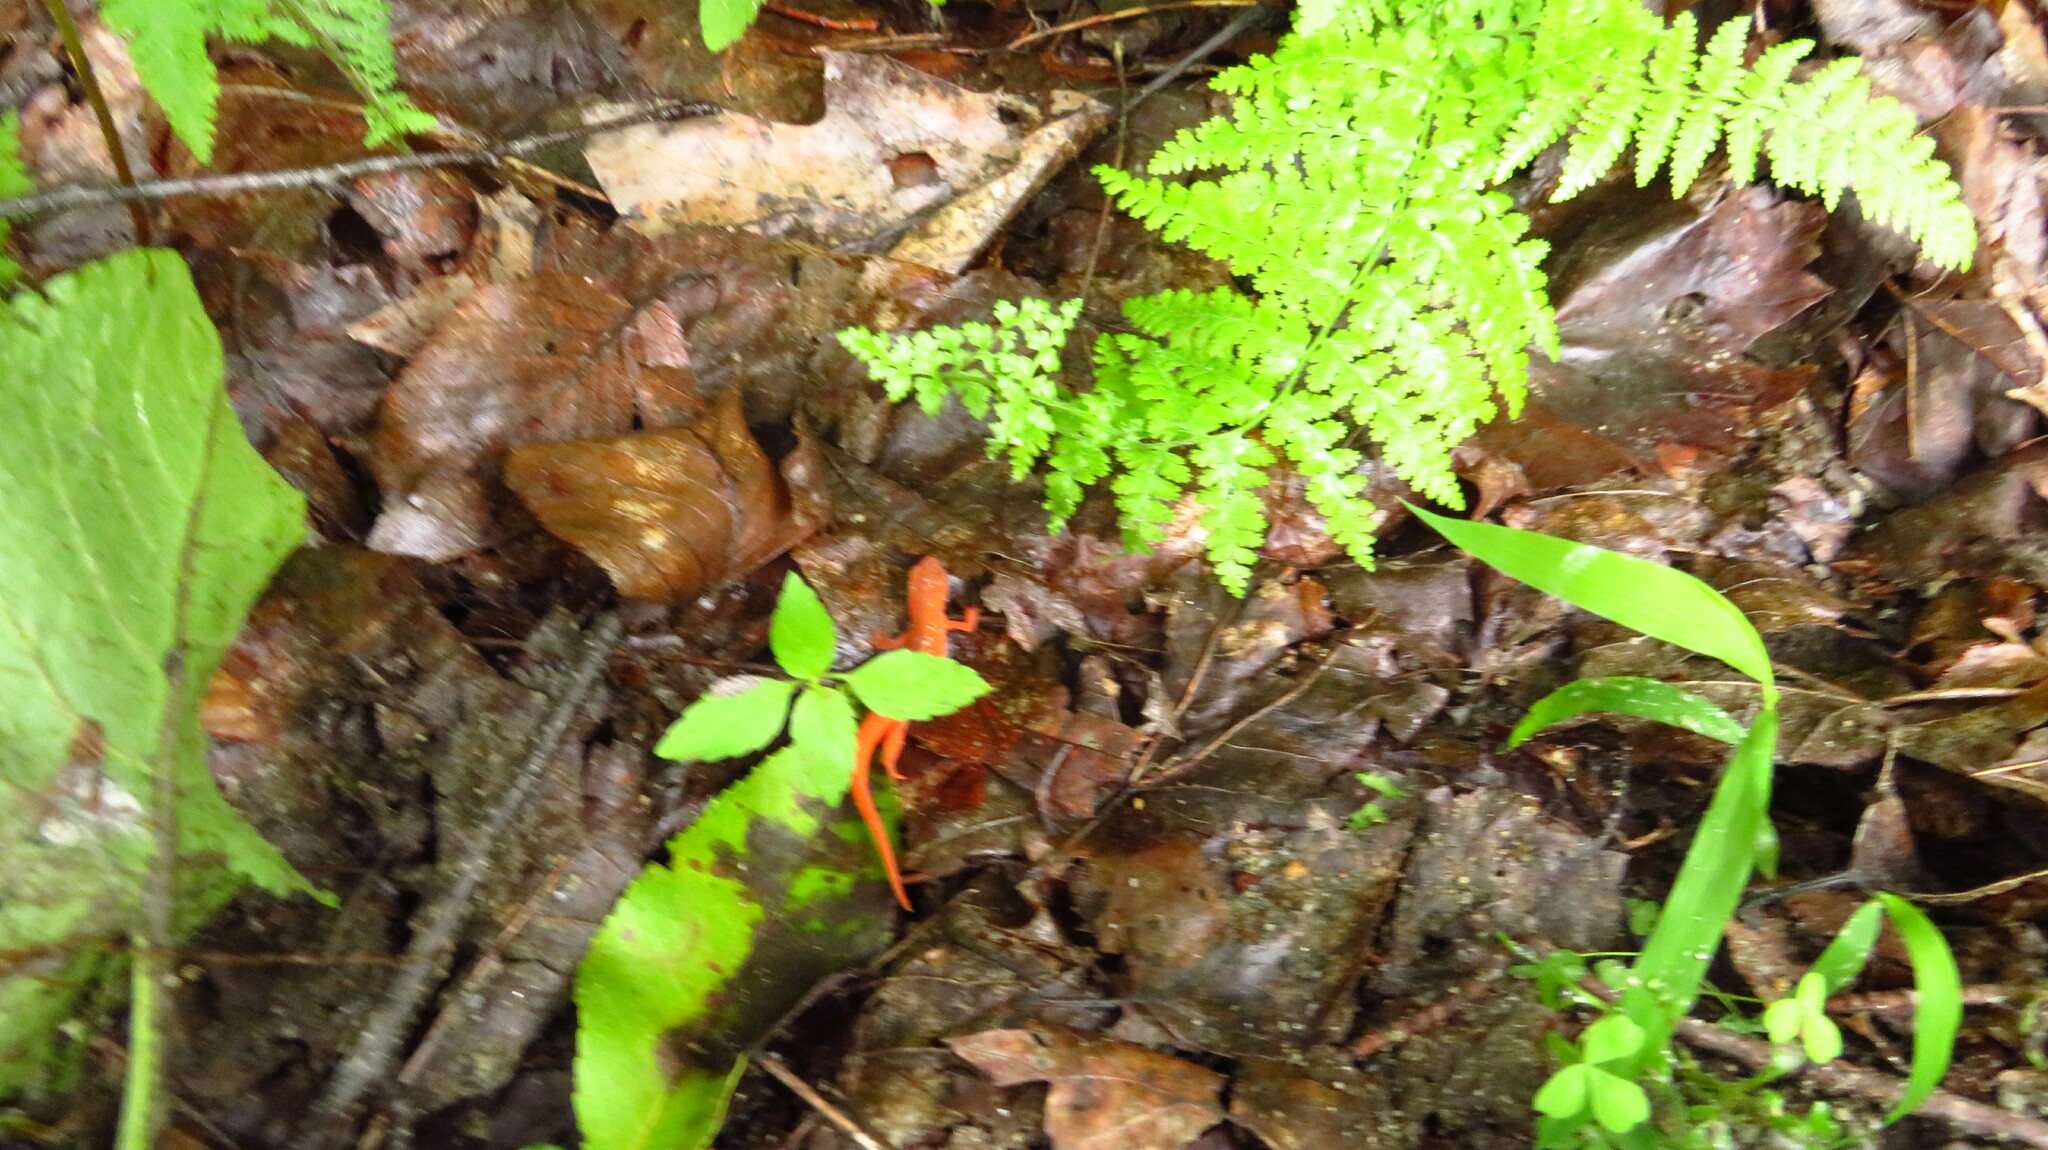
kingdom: Animalia
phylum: Chordata
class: Amphibia
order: Caudata
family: Salamandridae
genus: Notophthalmus
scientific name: Notophthalmus viridescens
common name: Eastern newt
